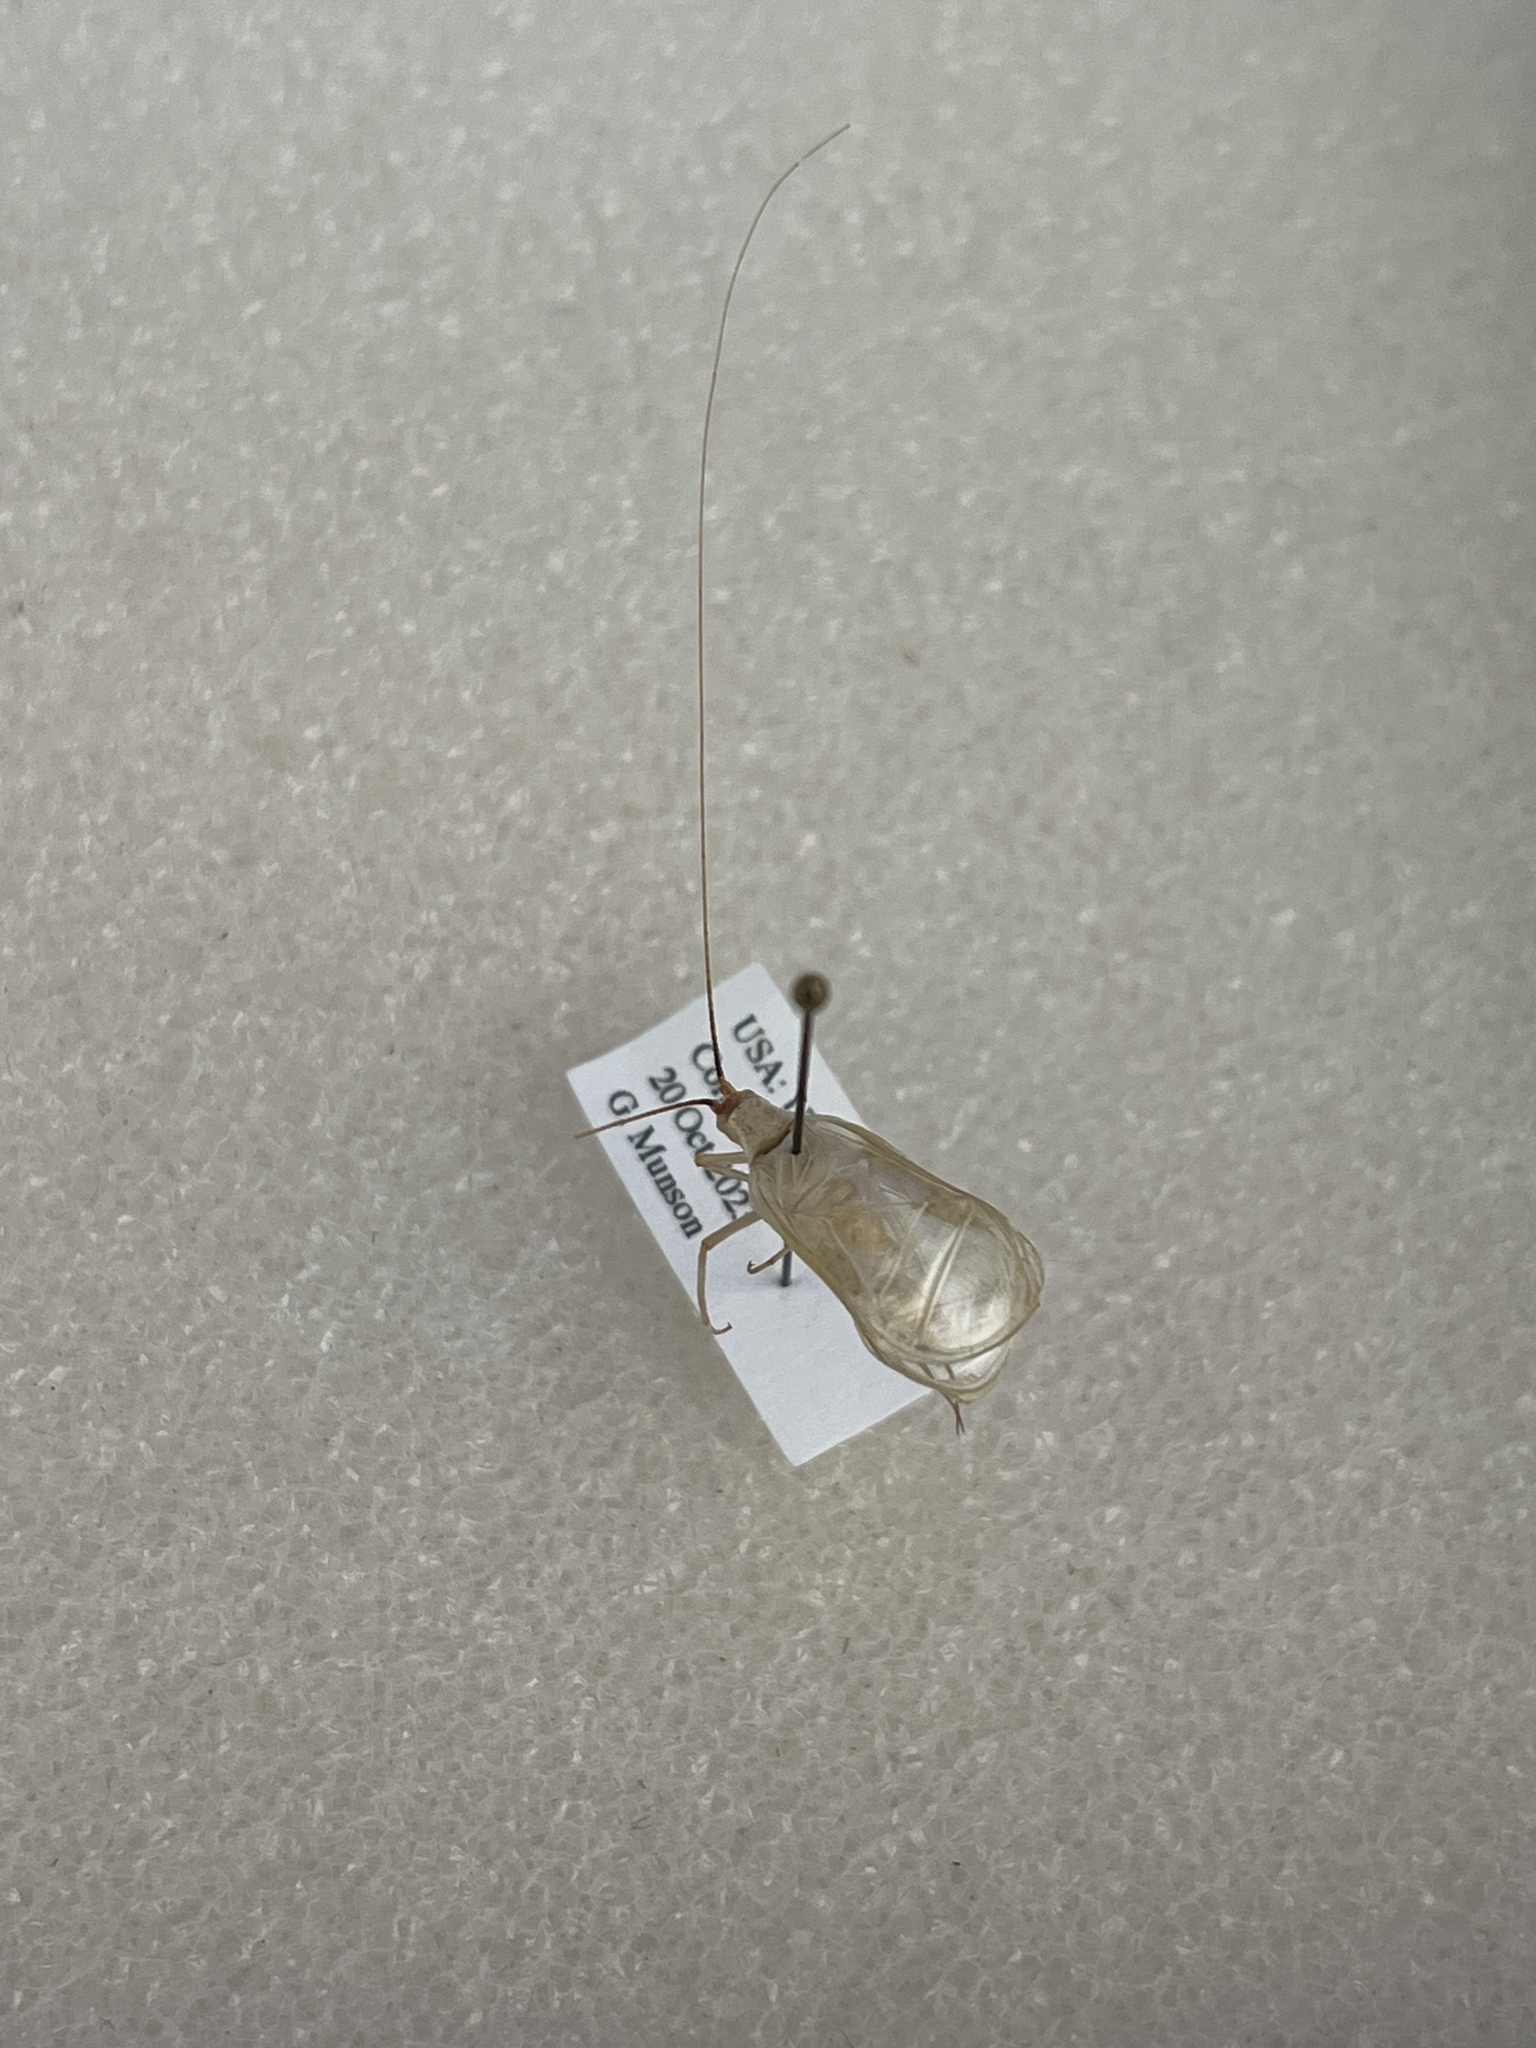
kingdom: Animalia
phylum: Arthropoda
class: Insecta
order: Orthoptera
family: Gryllidae
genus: Oecanthus
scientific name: Oecanthus californicus
